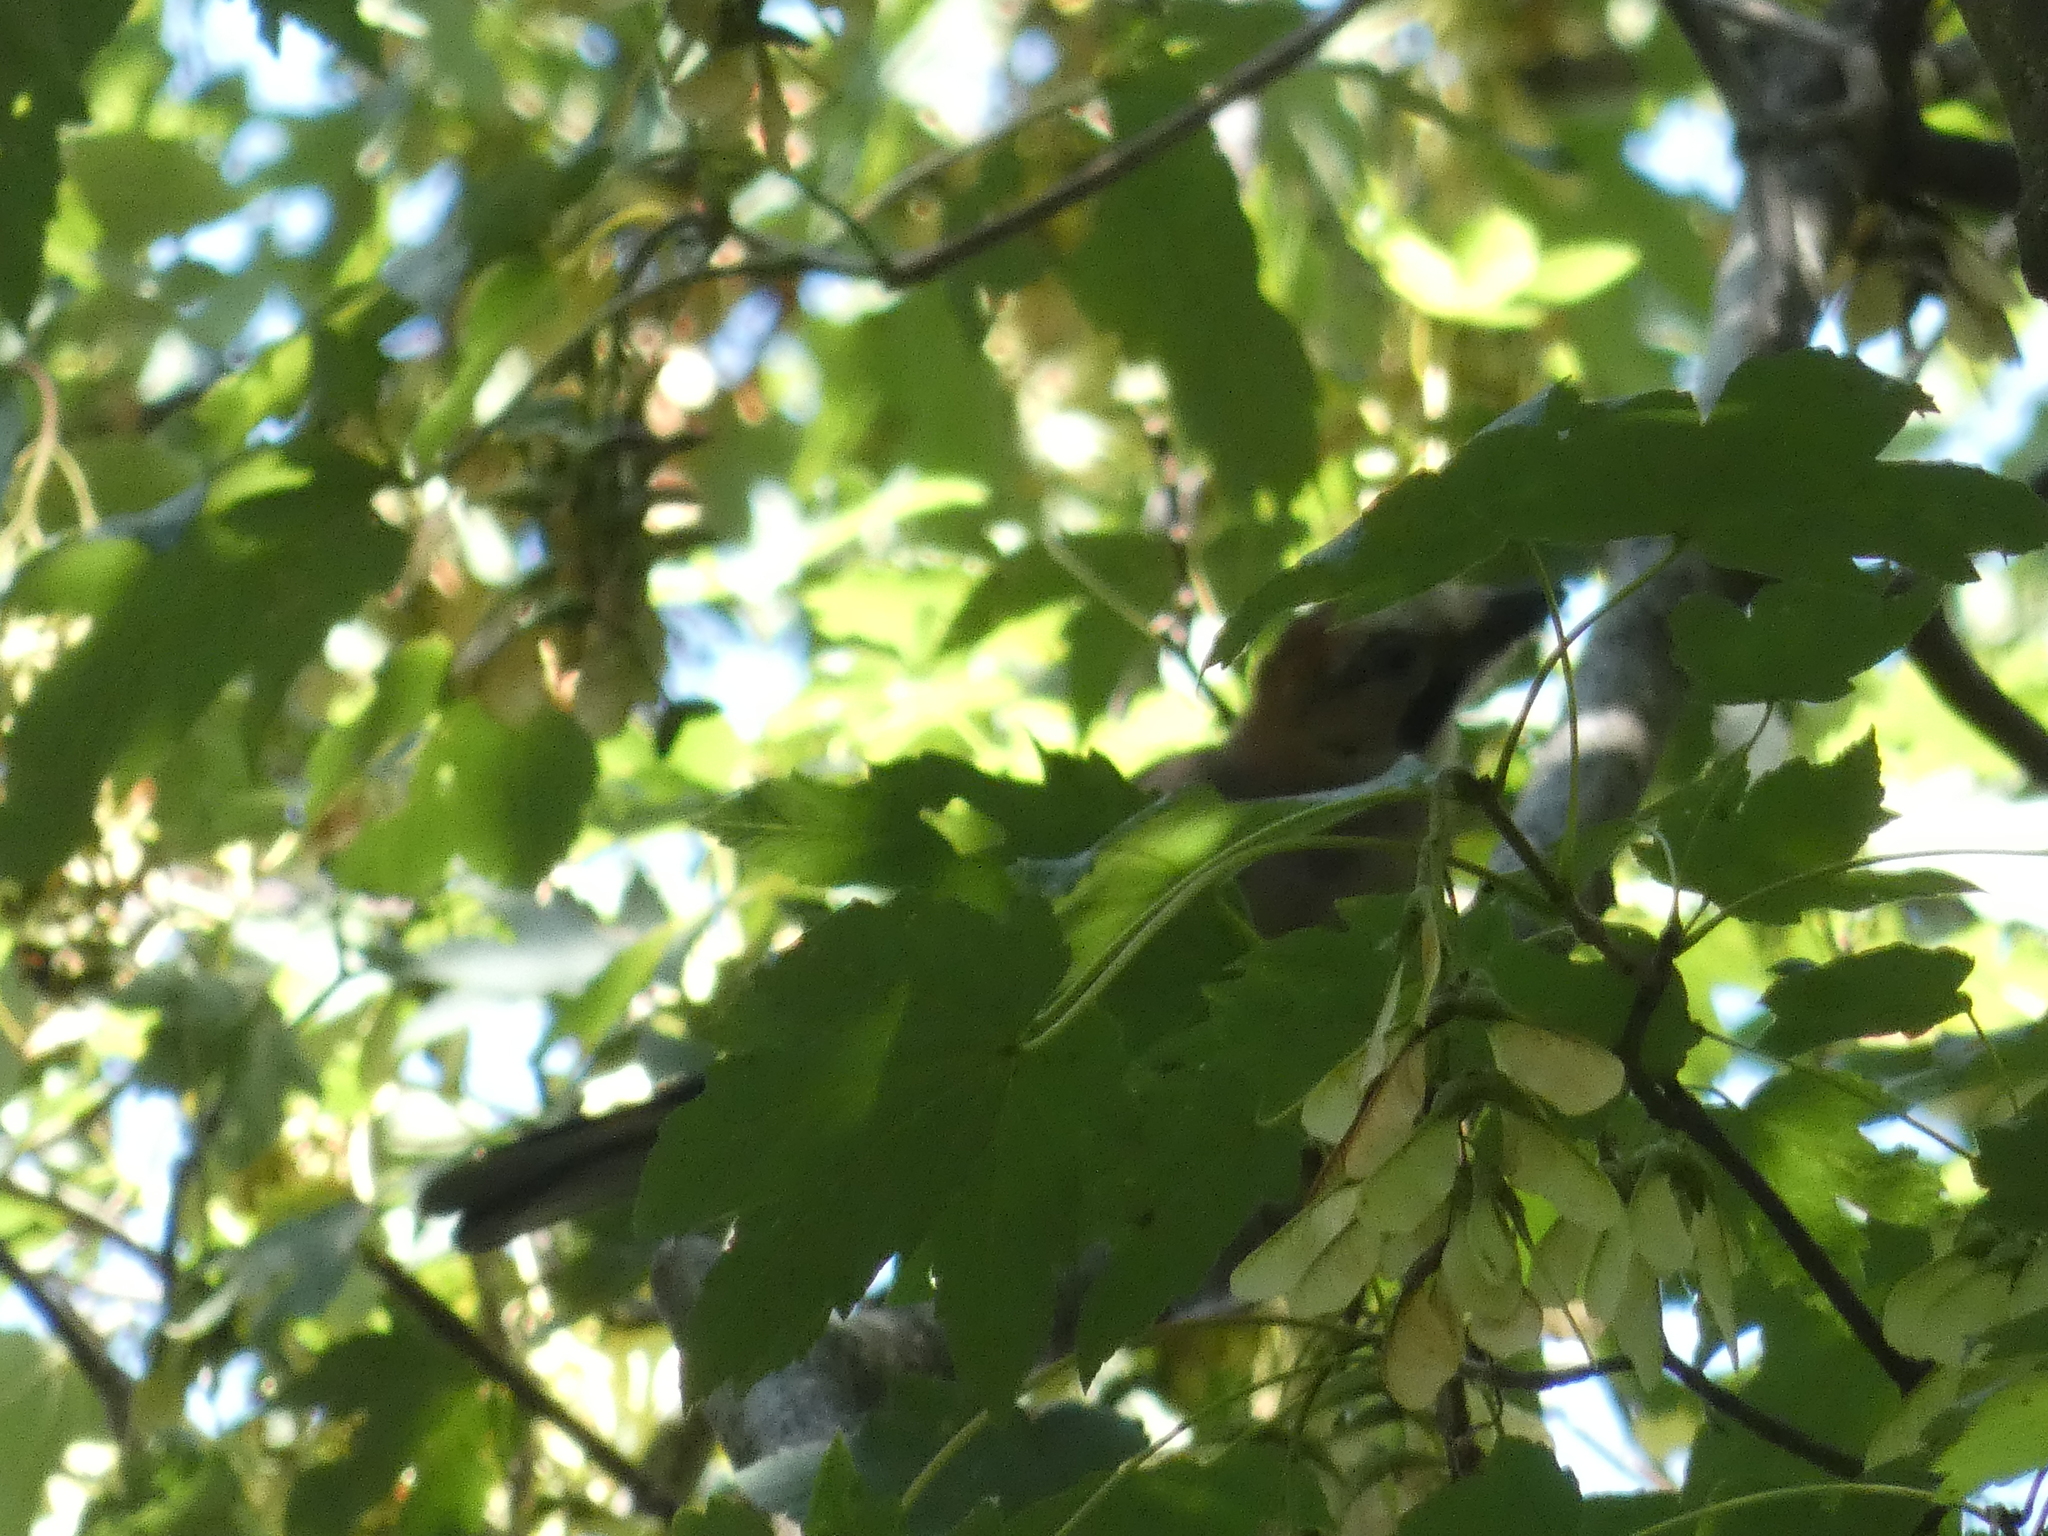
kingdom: Animalia
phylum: Chordata
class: Aves
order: Passeriformes
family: Corvidae
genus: Garrulus
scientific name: Garrulus glandarius
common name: Eurasian jay
